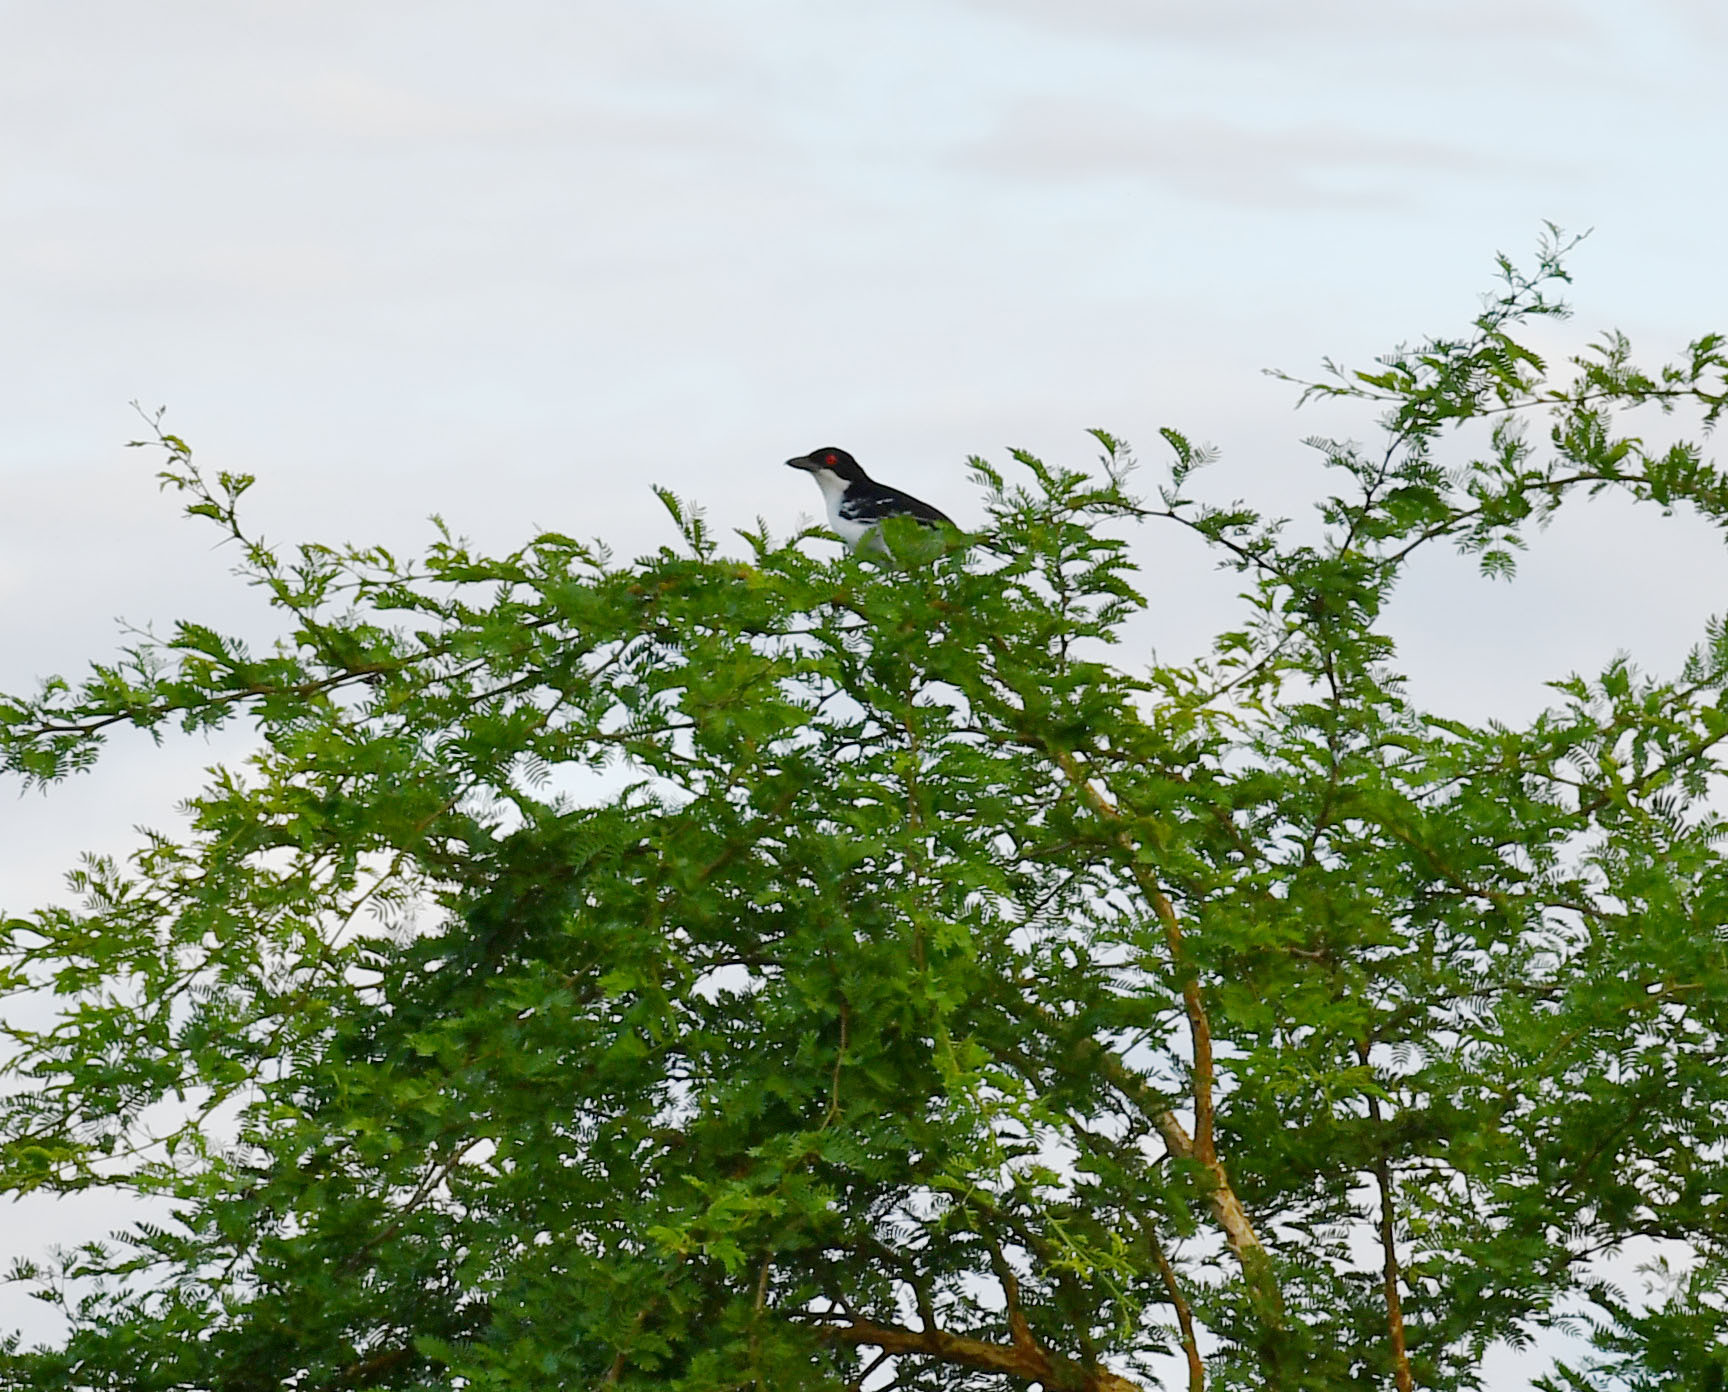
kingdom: Animalia
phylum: Chordata
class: Aves
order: Passeriformes
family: Thamnophilidae
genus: Taraba
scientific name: Taraba major
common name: Great antshrike
